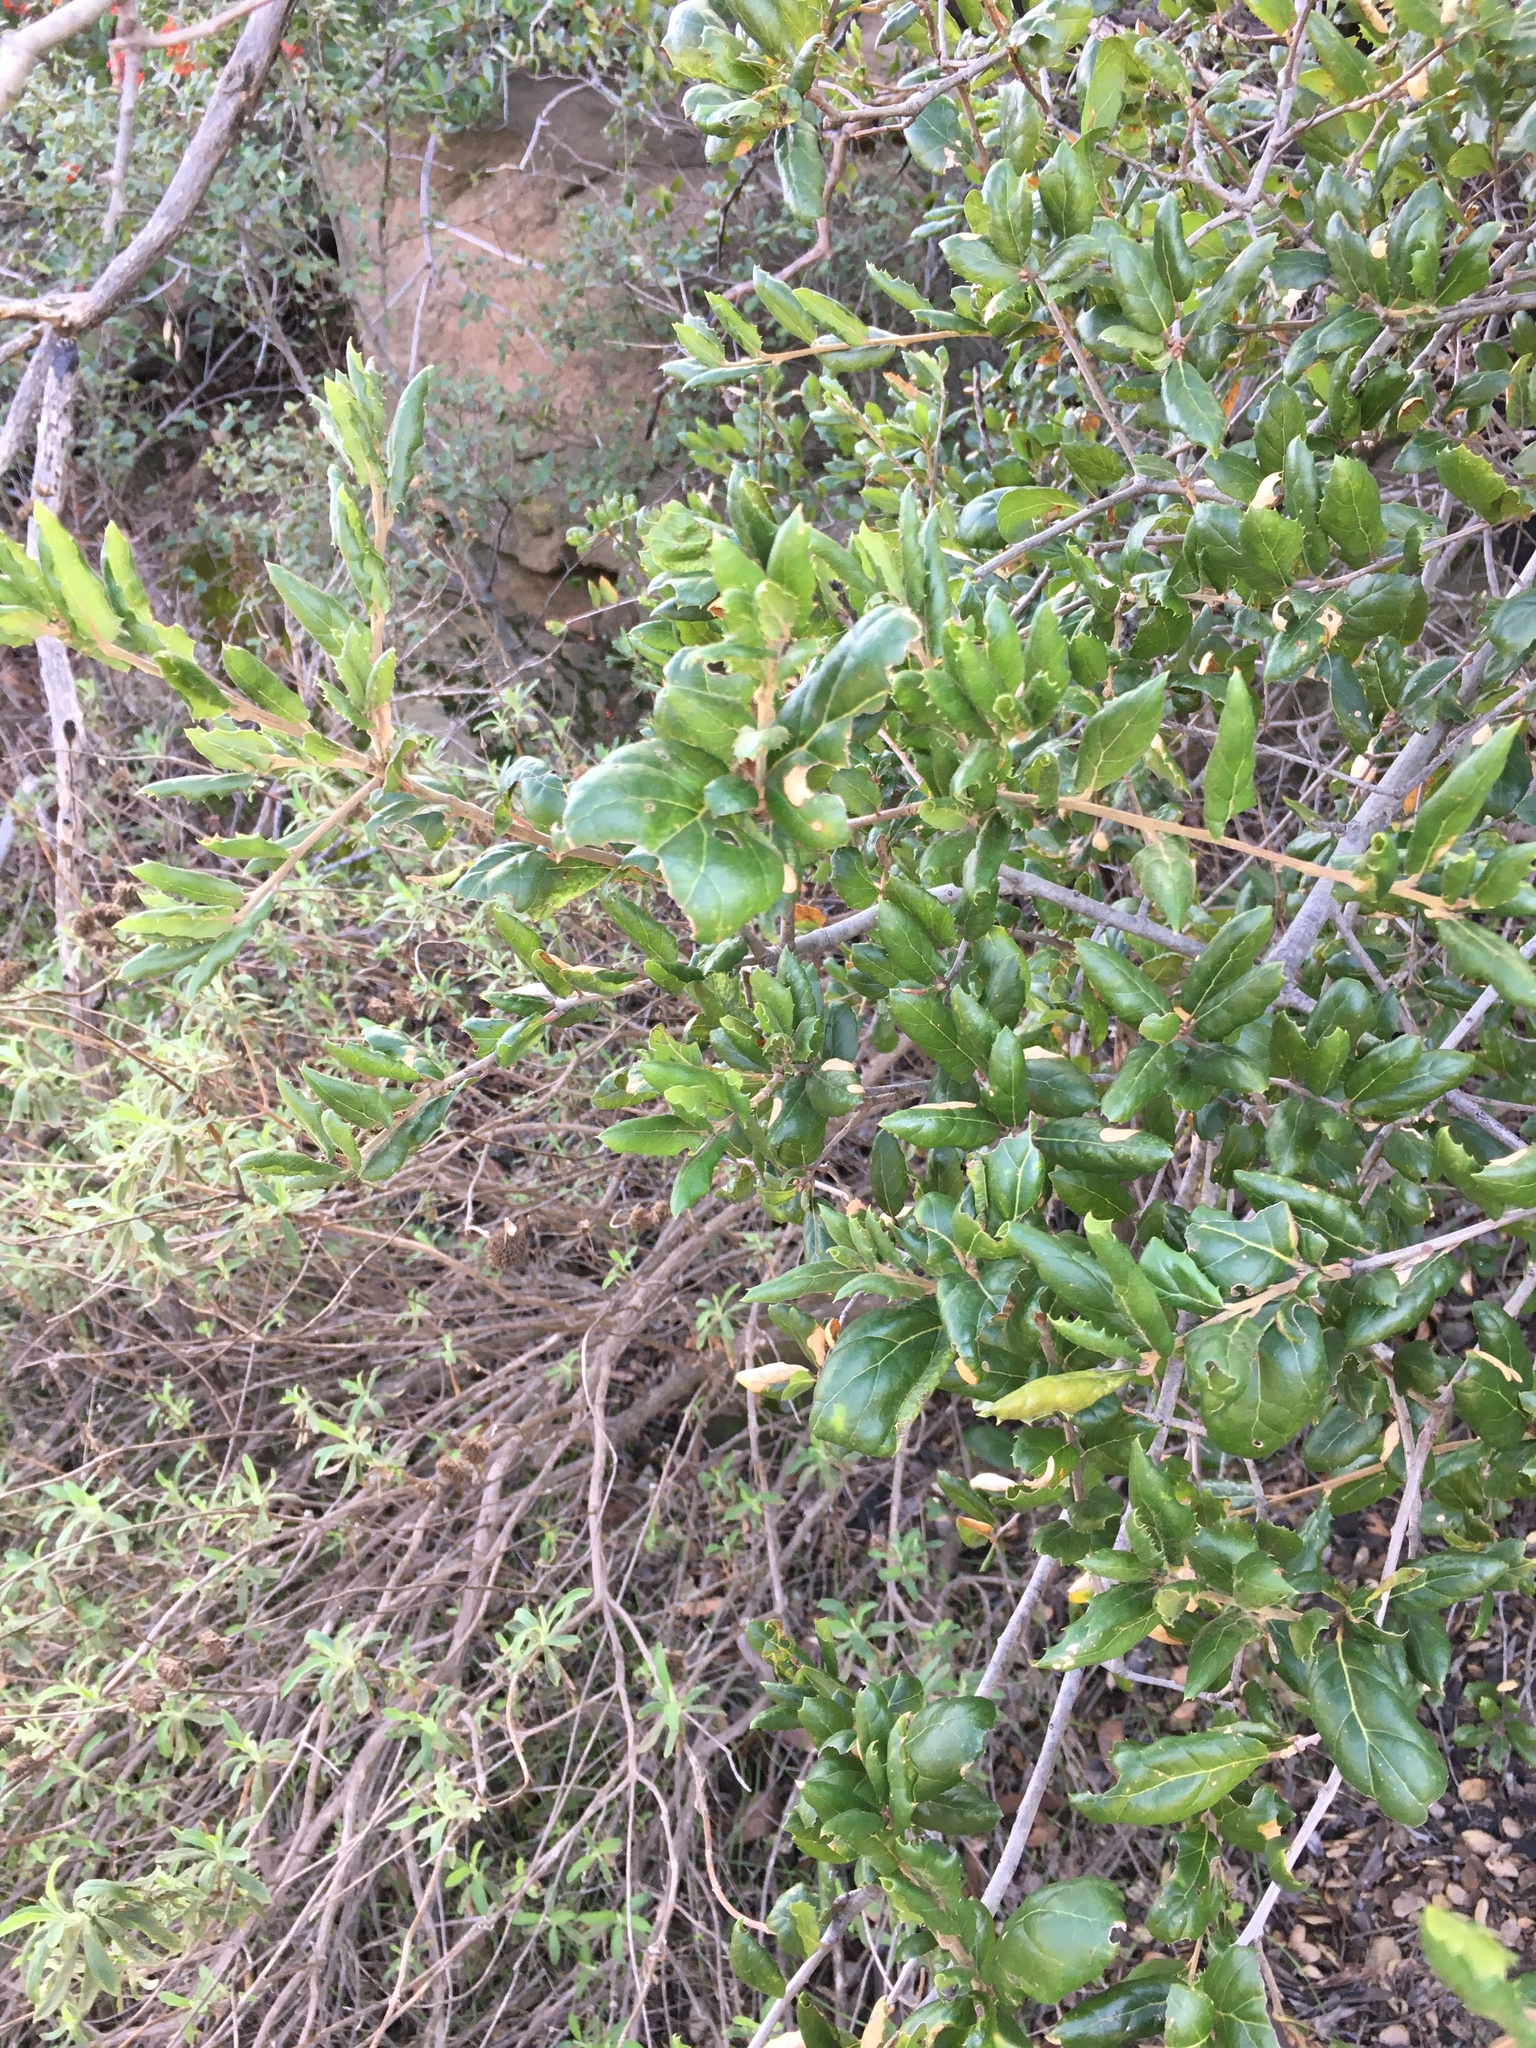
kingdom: Plantae
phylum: Tracheophyta
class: Magnoliopsida
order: Fagales
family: Fagaceae
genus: Quercus
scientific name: Quercus agrifolia
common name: California live oak
